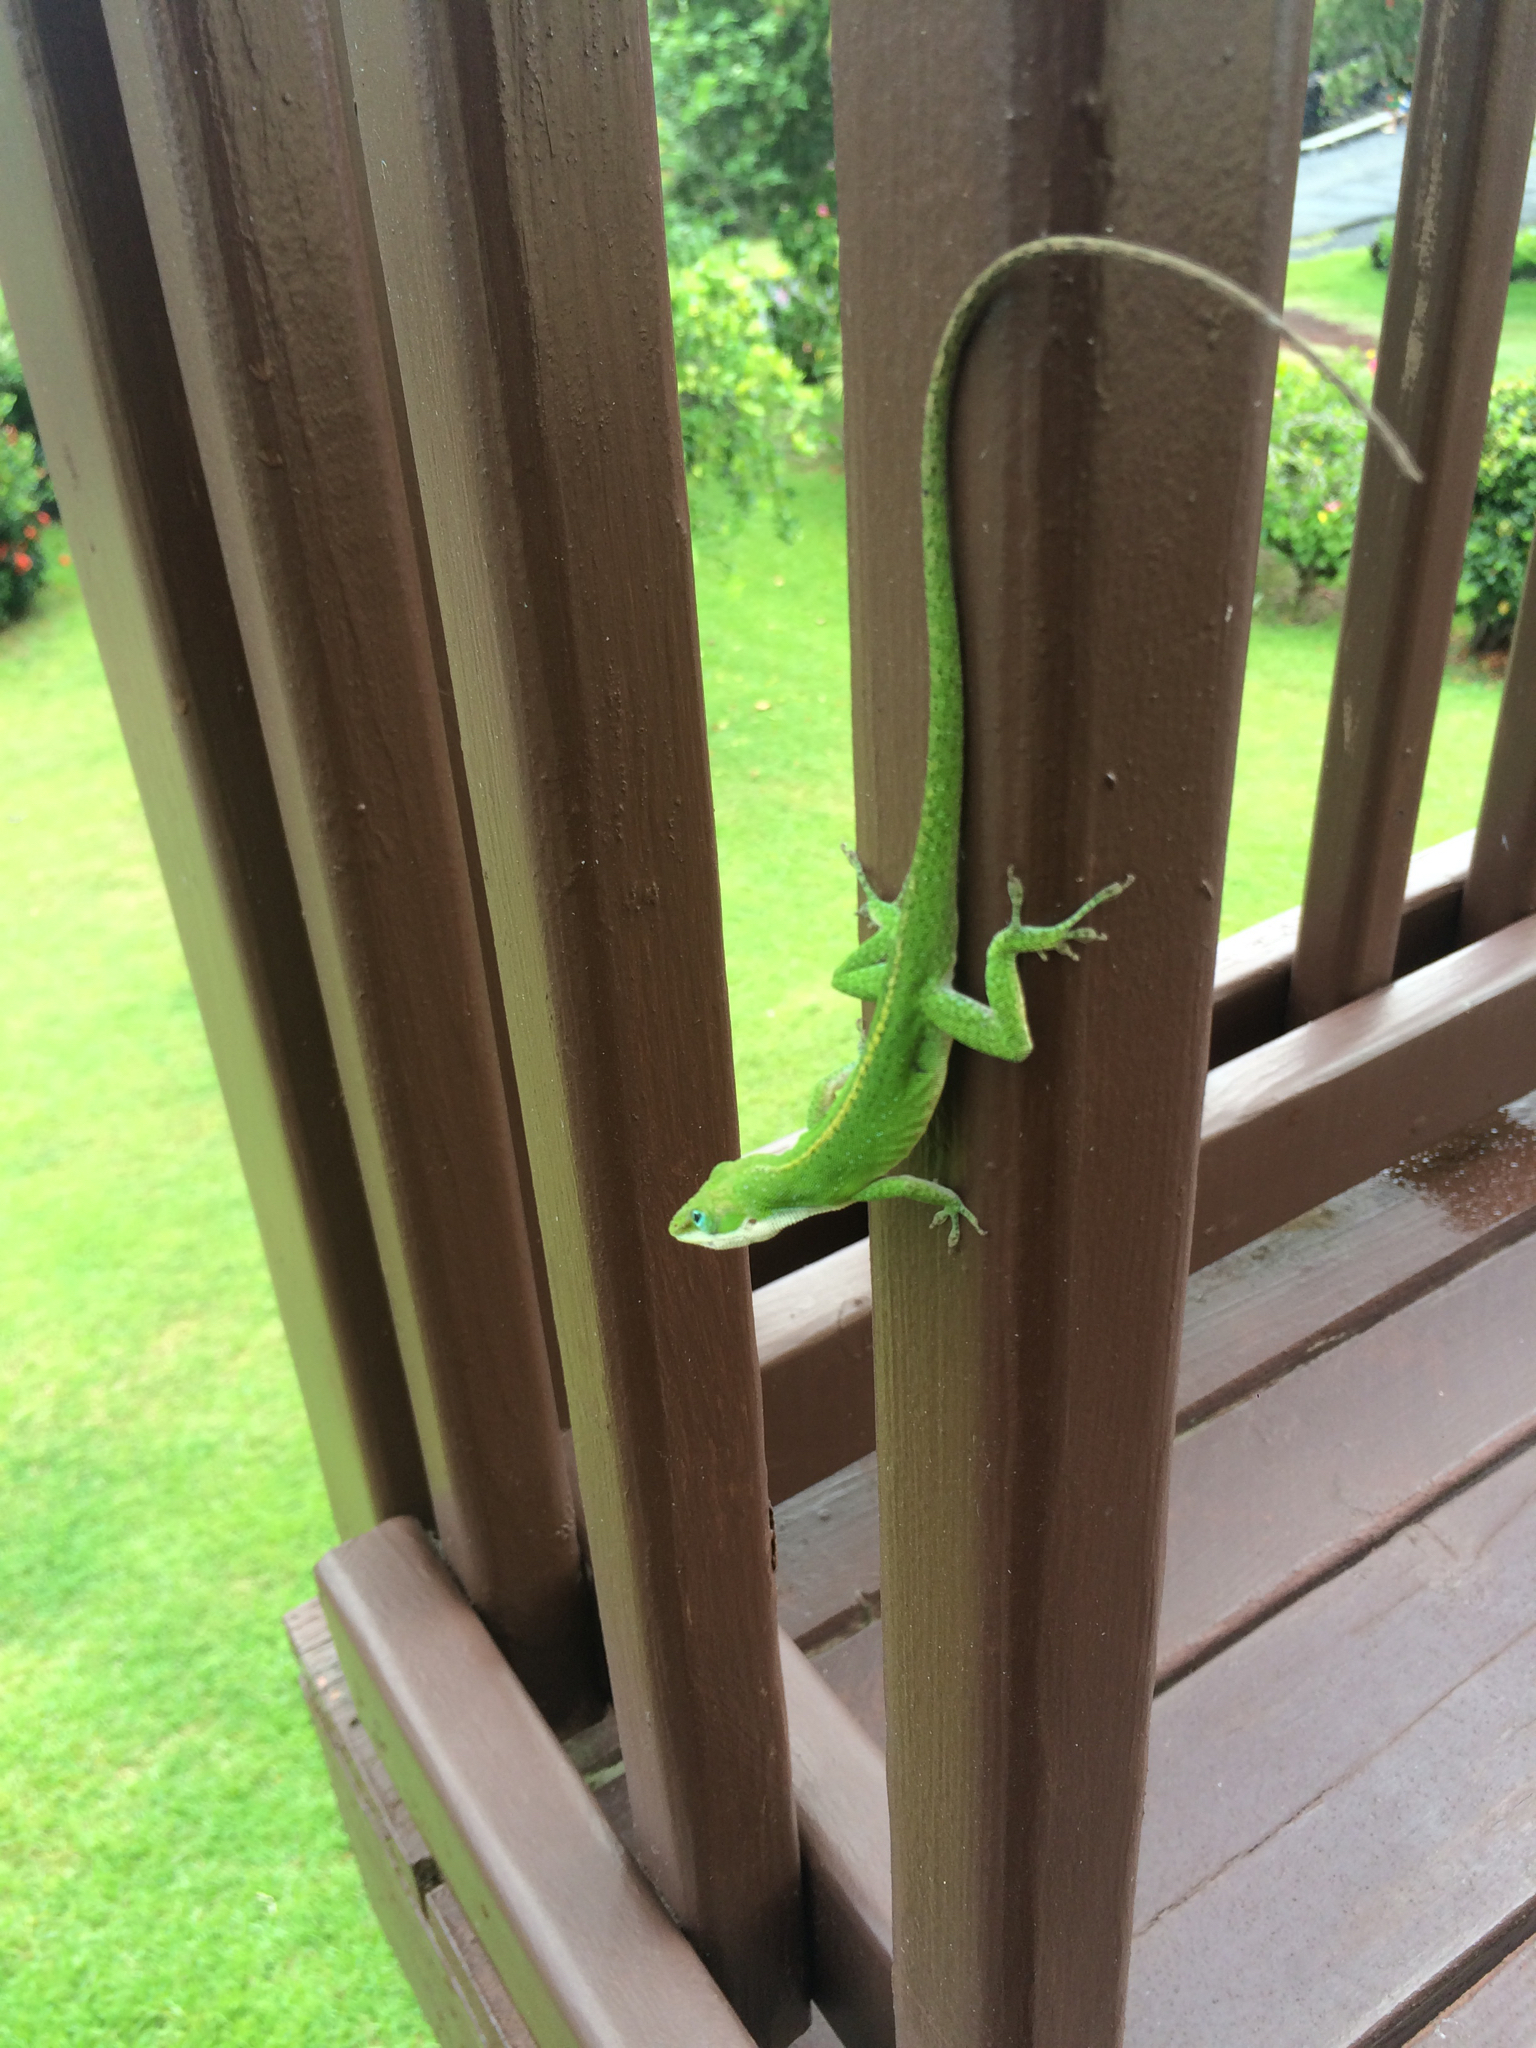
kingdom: Animalia
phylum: Chordata
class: Squamata
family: Dactyloidae
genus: Anolis
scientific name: Anolis carolinensis
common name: Green anole
